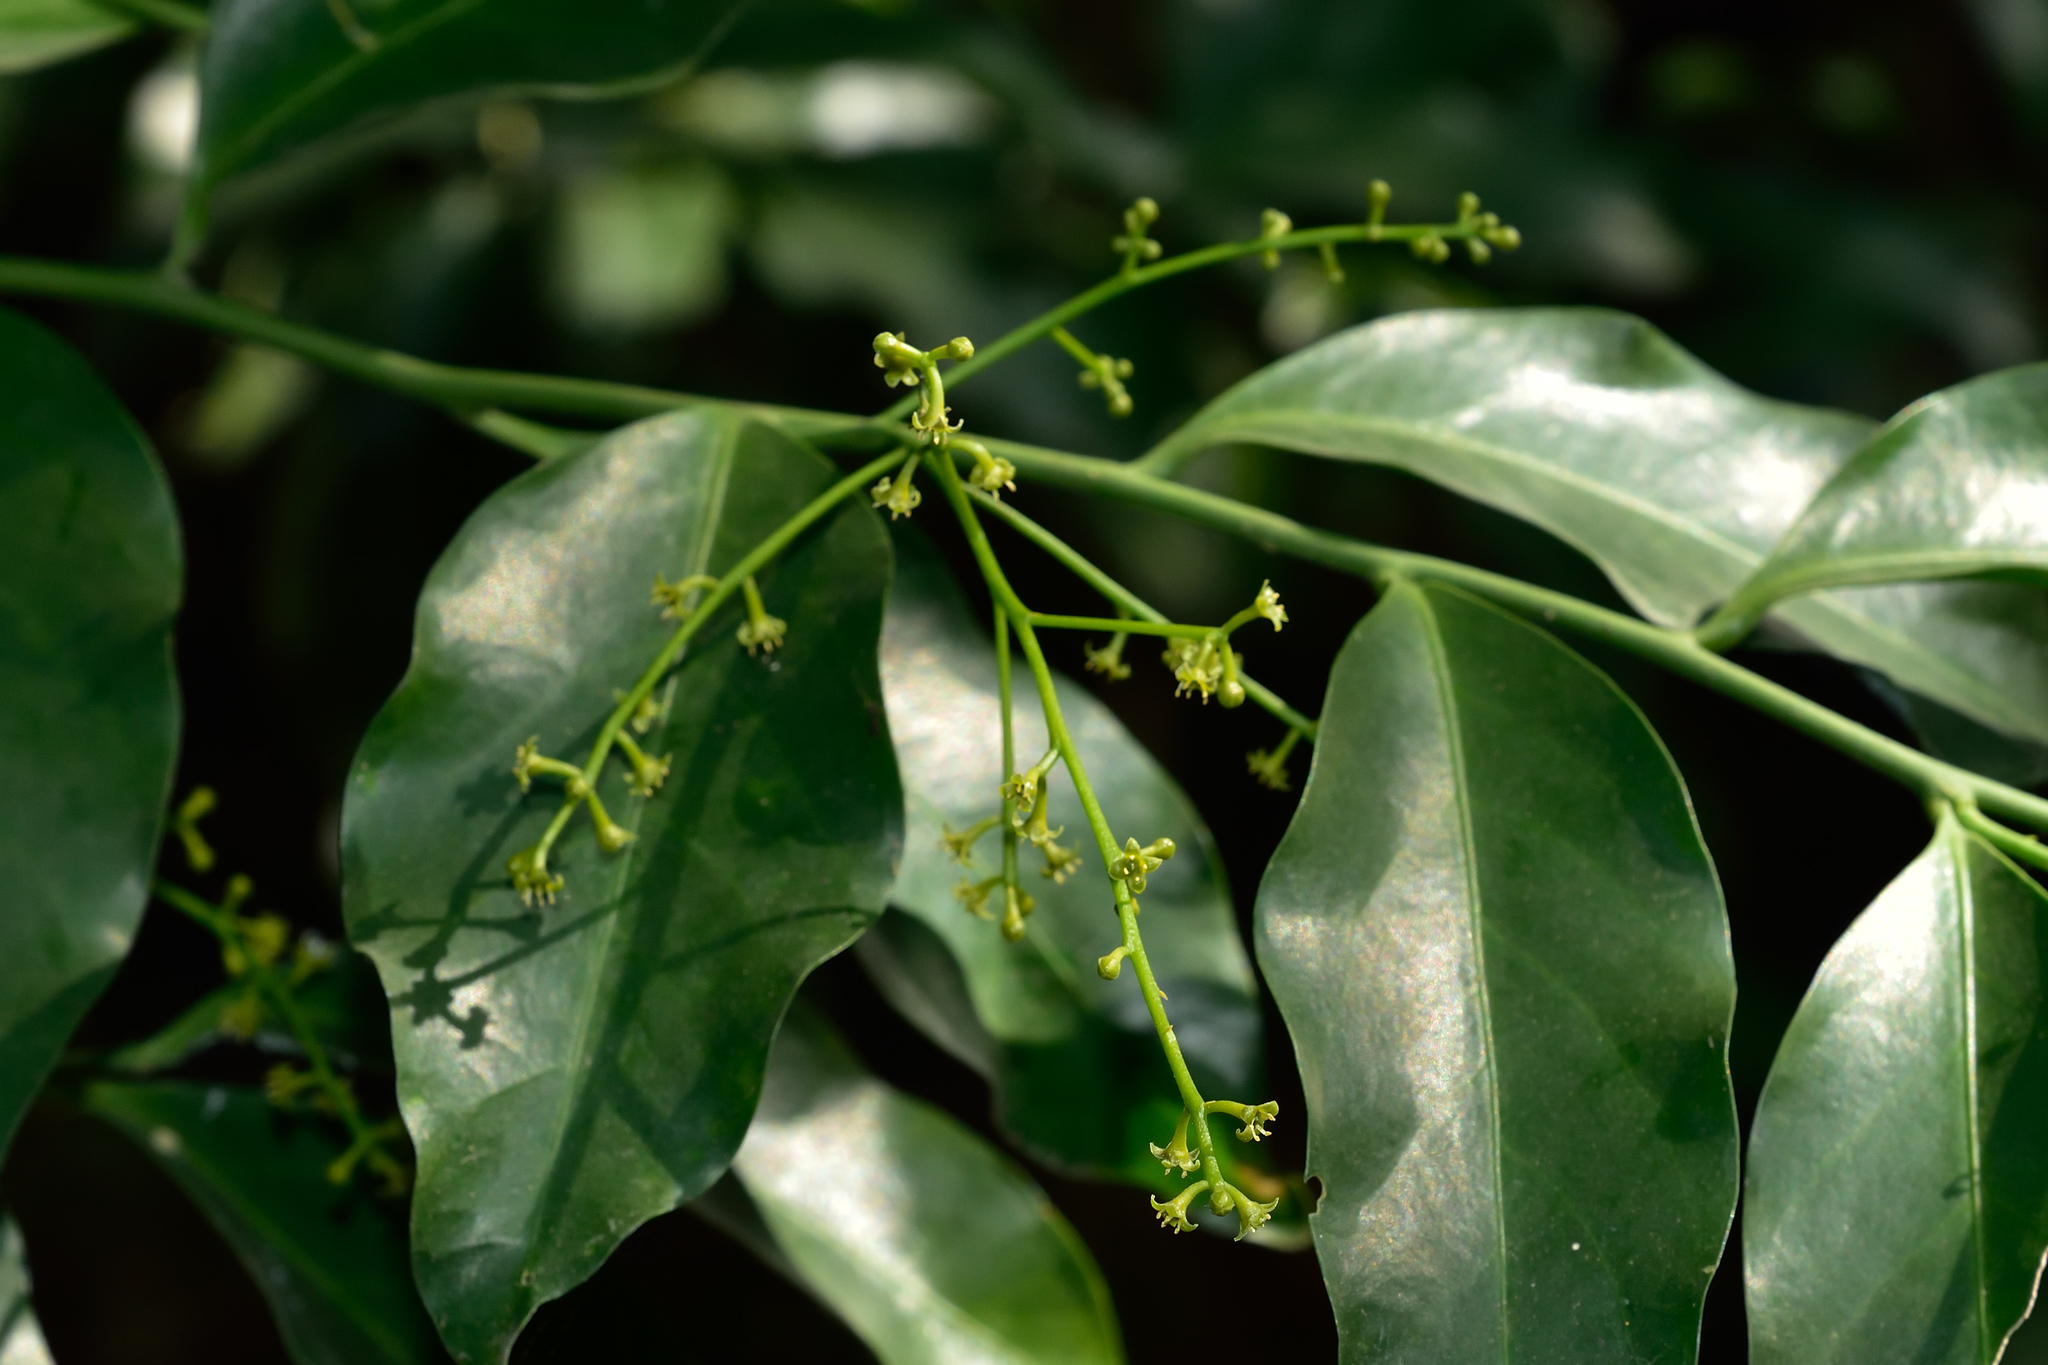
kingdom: Plantae
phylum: Tracheophyta
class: Magnoliopsida
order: Santalales
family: Opiliaceae
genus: Champereia
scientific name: Champereia manillana
